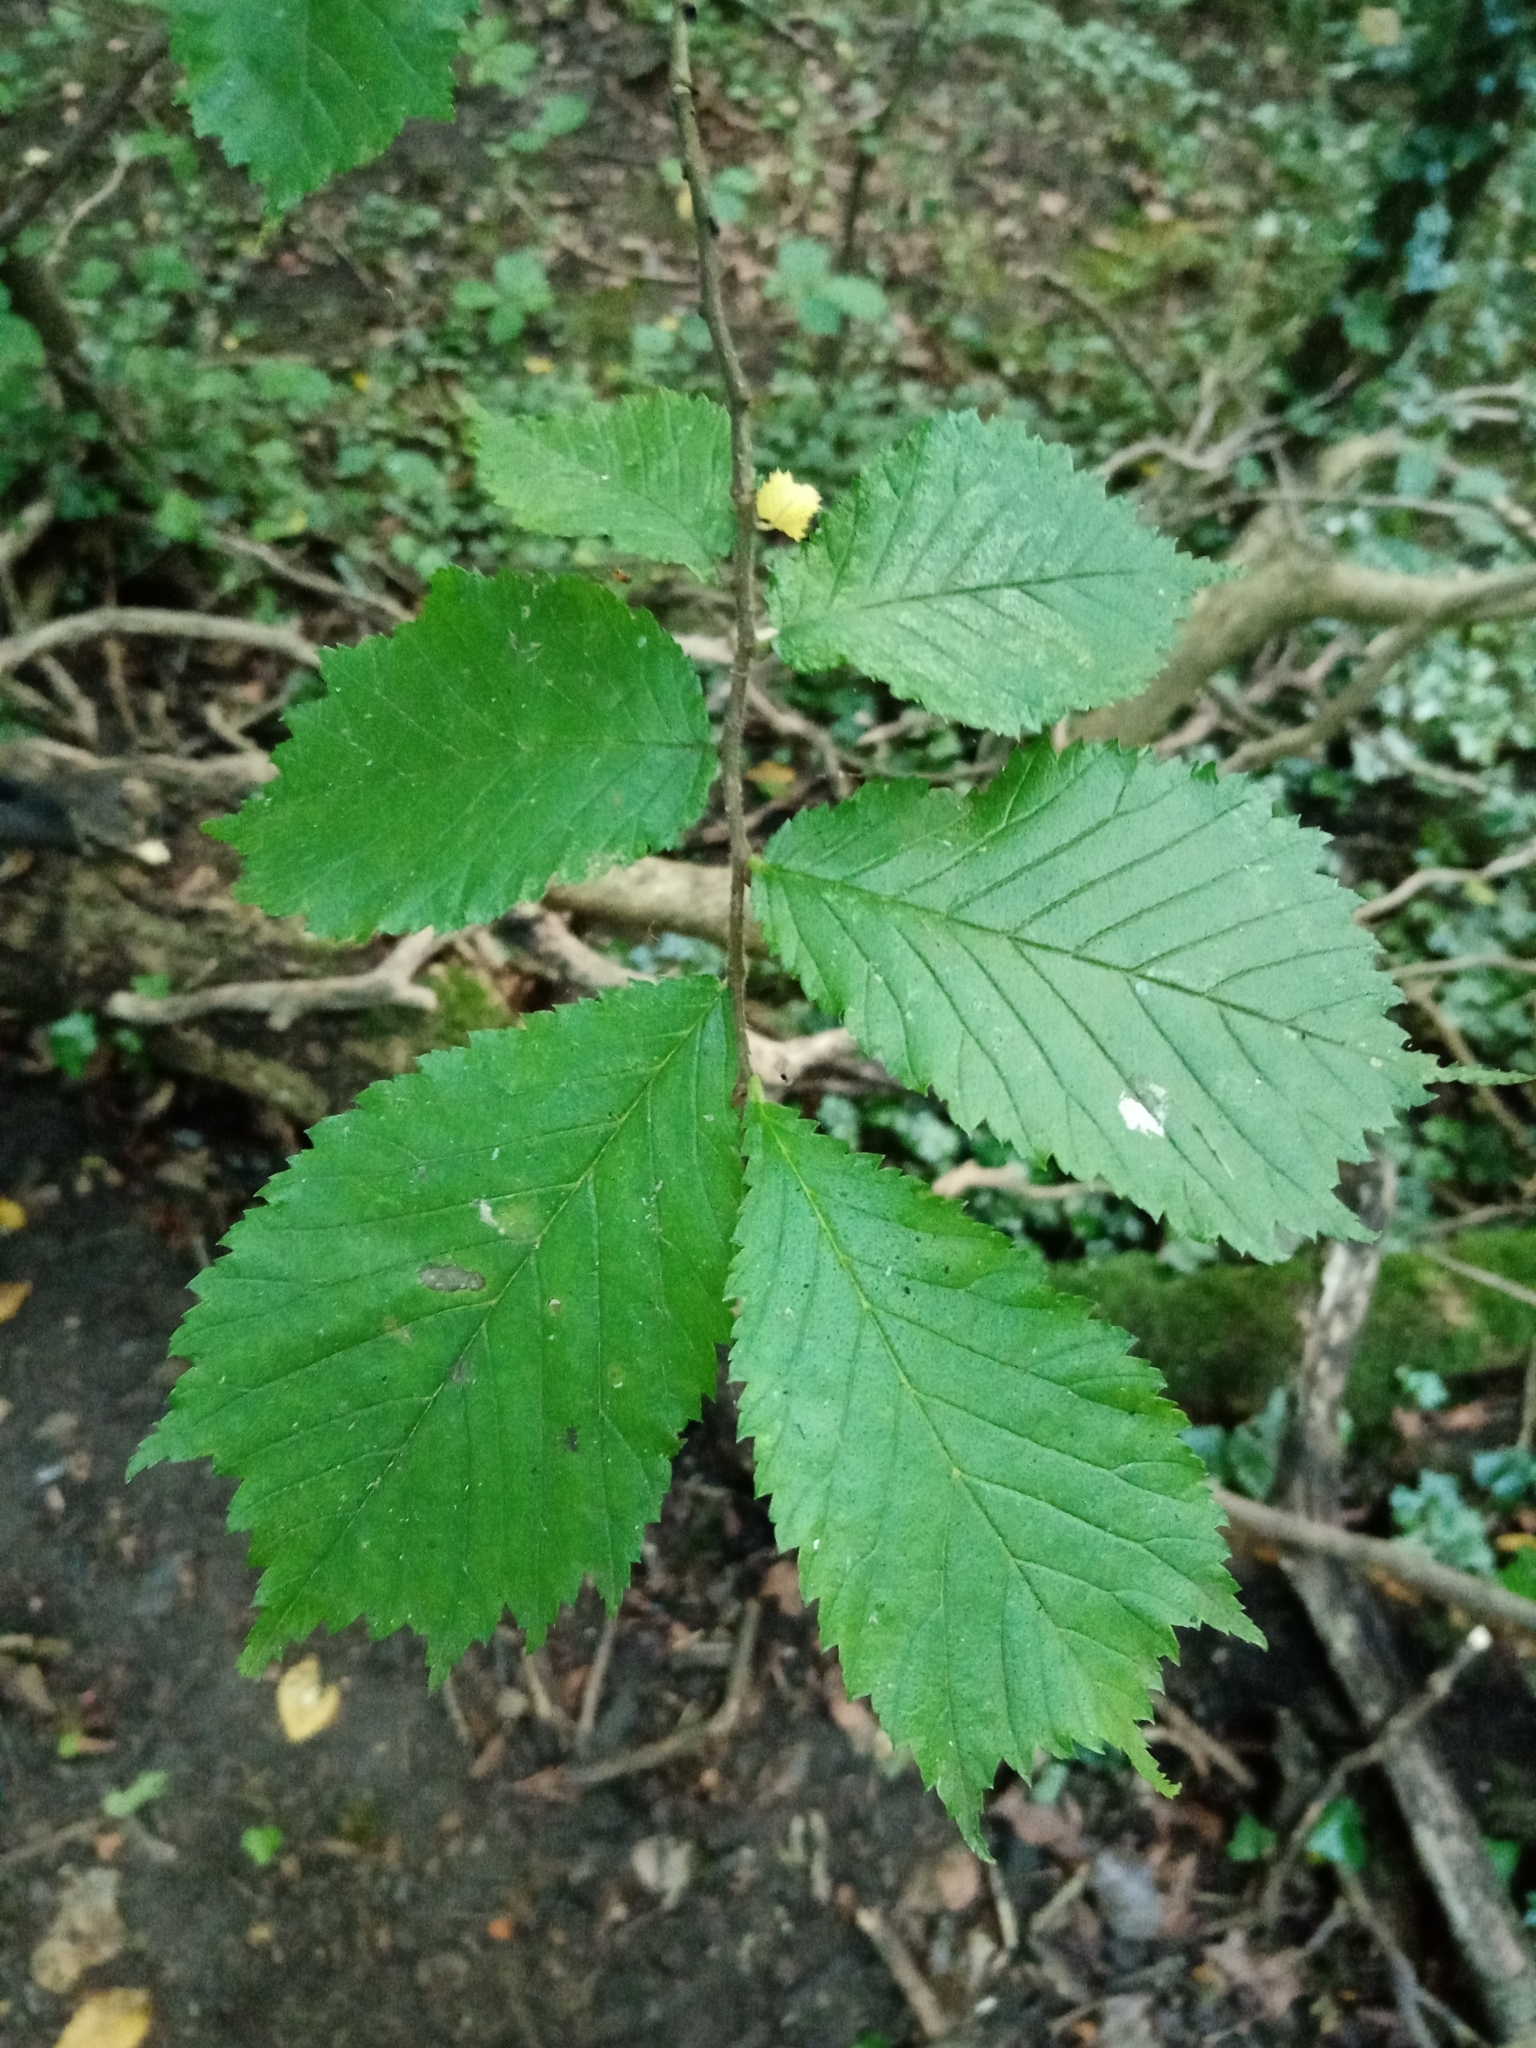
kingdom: Plantae
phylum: Tracheophyta
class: Magnoliopsida
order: Rosales
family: Ulmaceae
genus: Ulmus
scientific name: Ulmus glabra
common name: Wych elm
